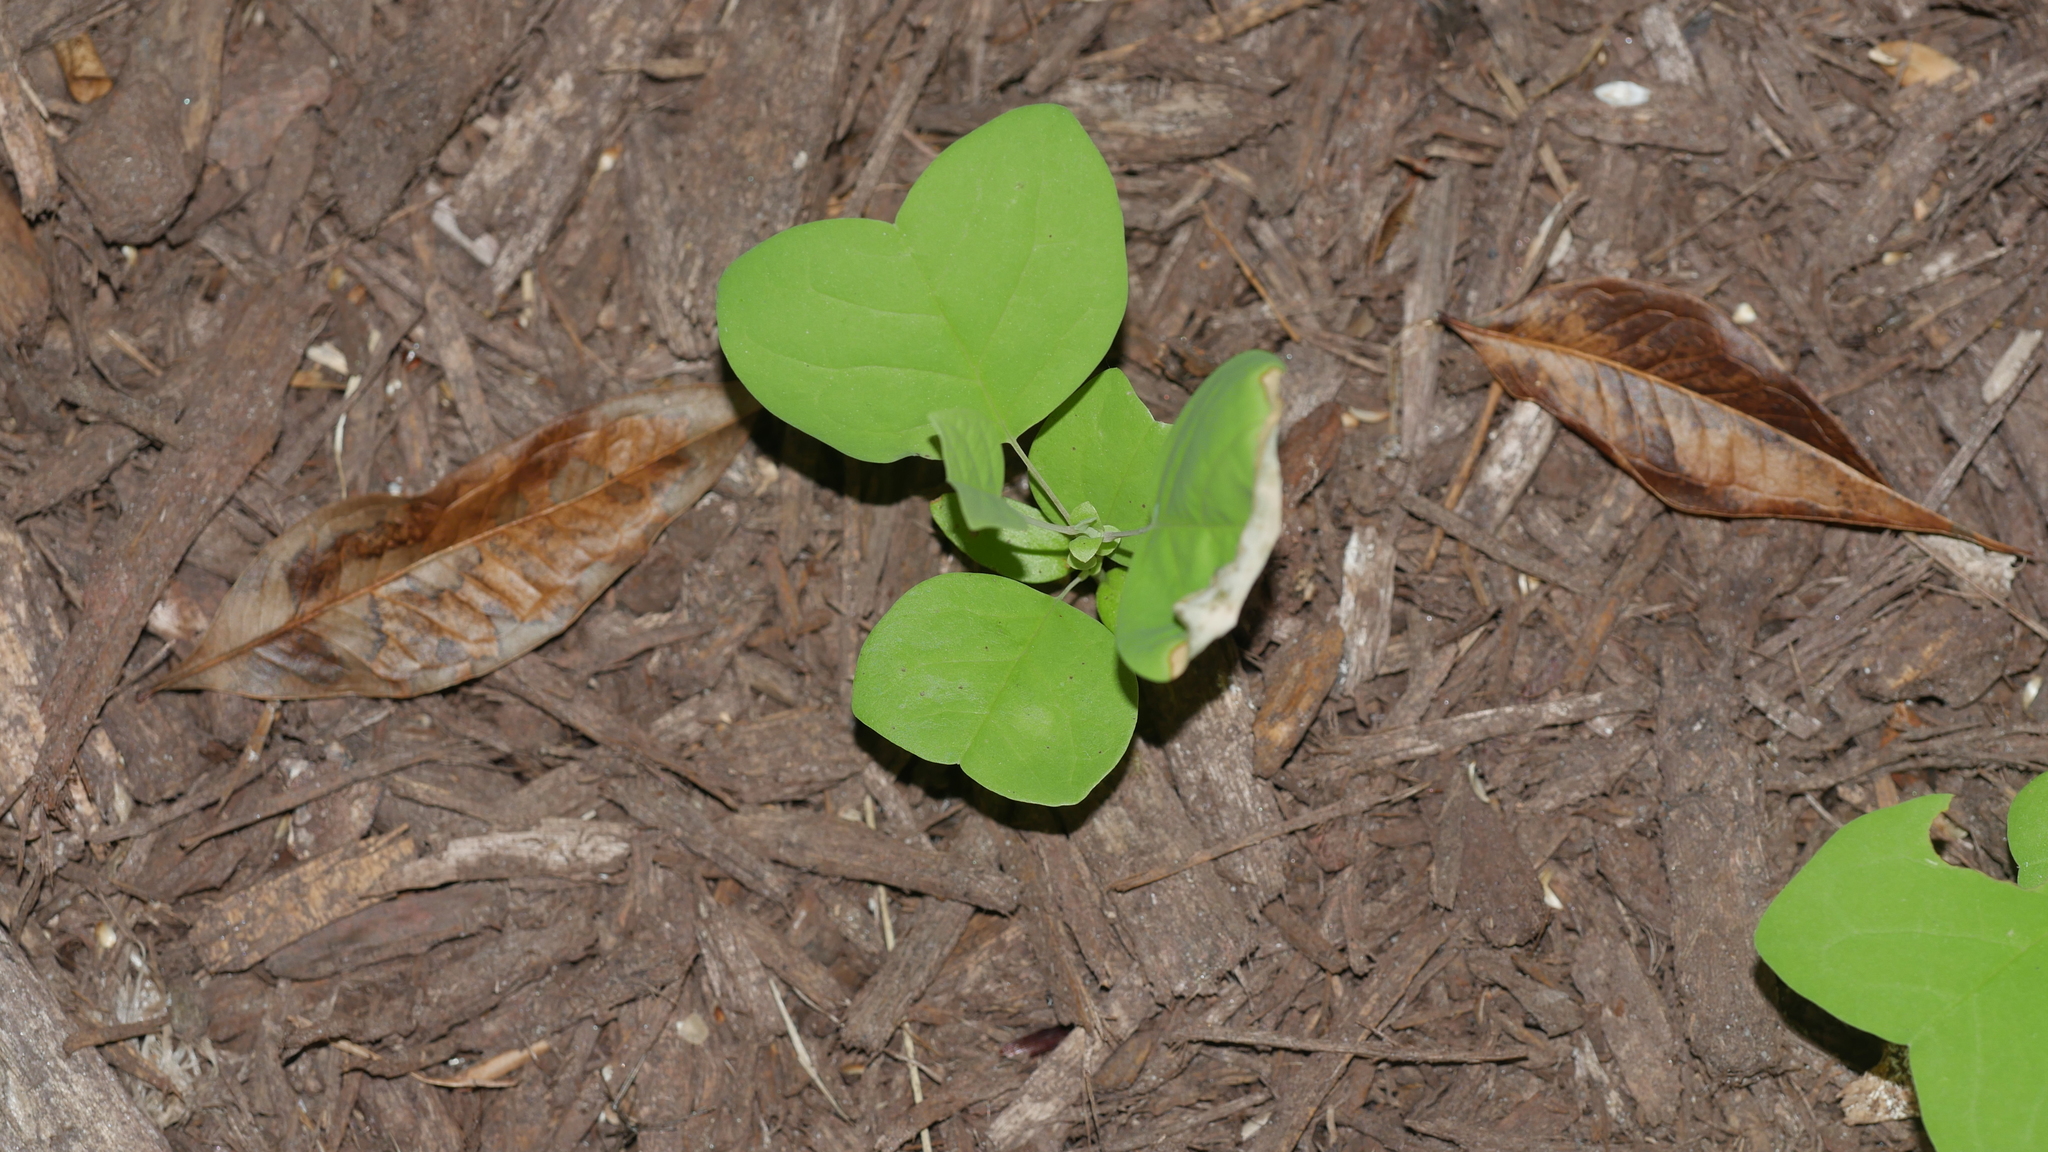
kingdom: Plantae
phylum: Tracheophyta
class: Magnoliopsida
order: Magnoliales
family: Magnoliaceae
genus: Liriodendron
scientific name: Liriodendron tulipifera
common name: Tulip tree
